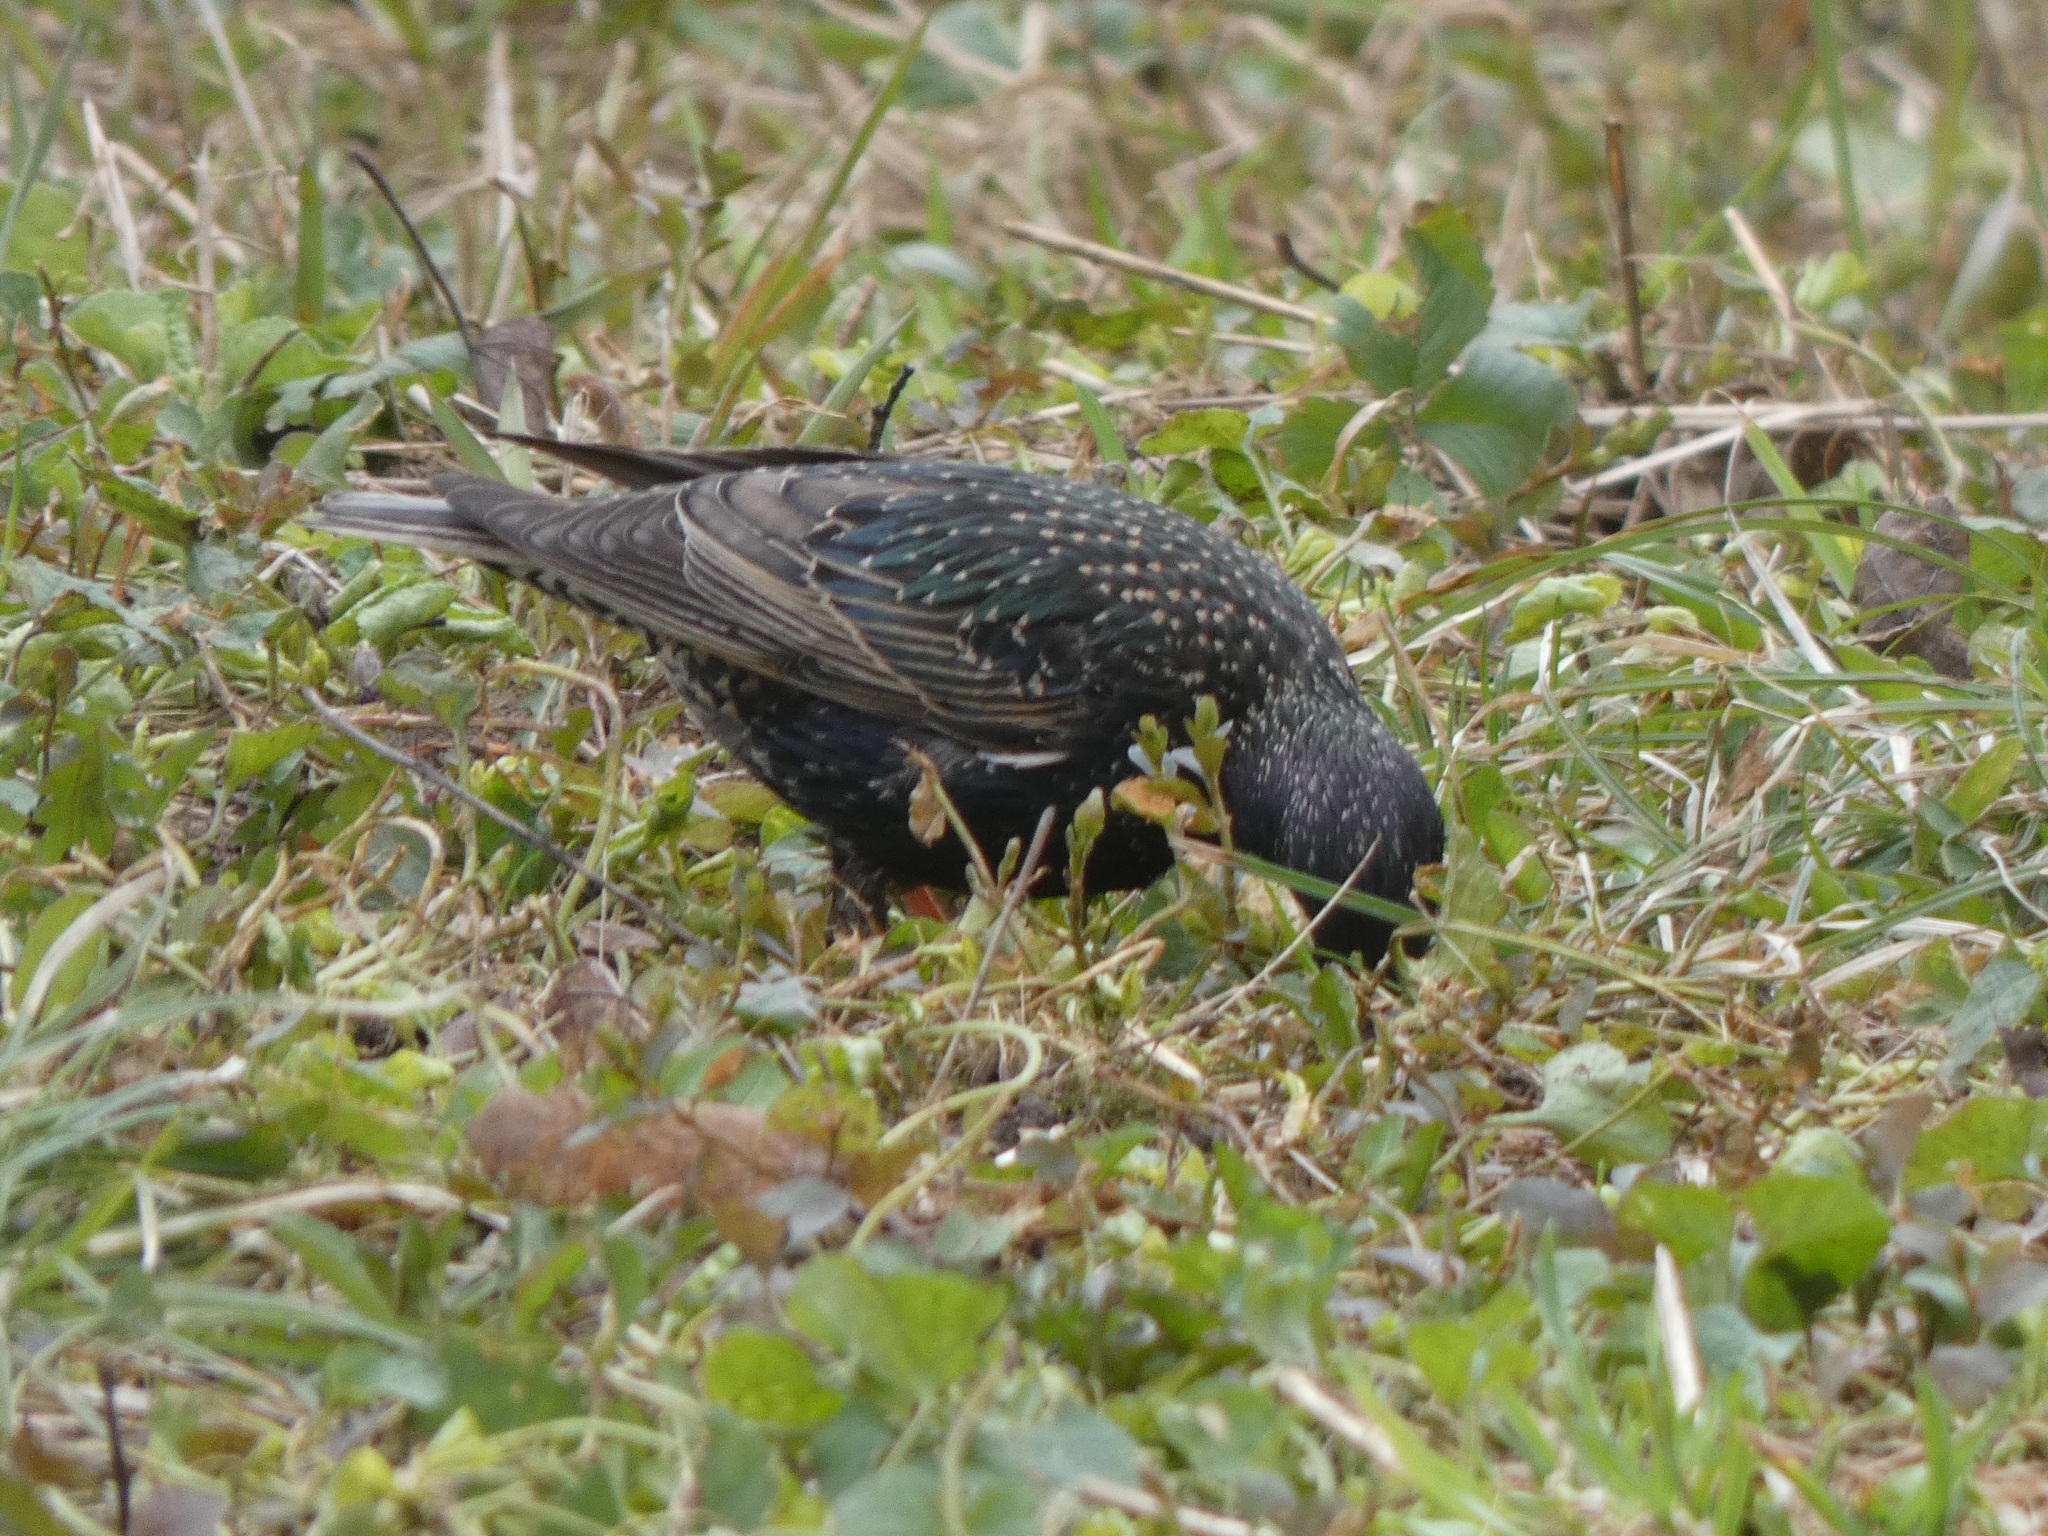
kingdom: Animalia
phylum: Chordata
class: Aves
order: Passeriformes
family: Sturnidae
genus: Sturnus
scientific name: Sturnus vulgaris
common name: Common starling
